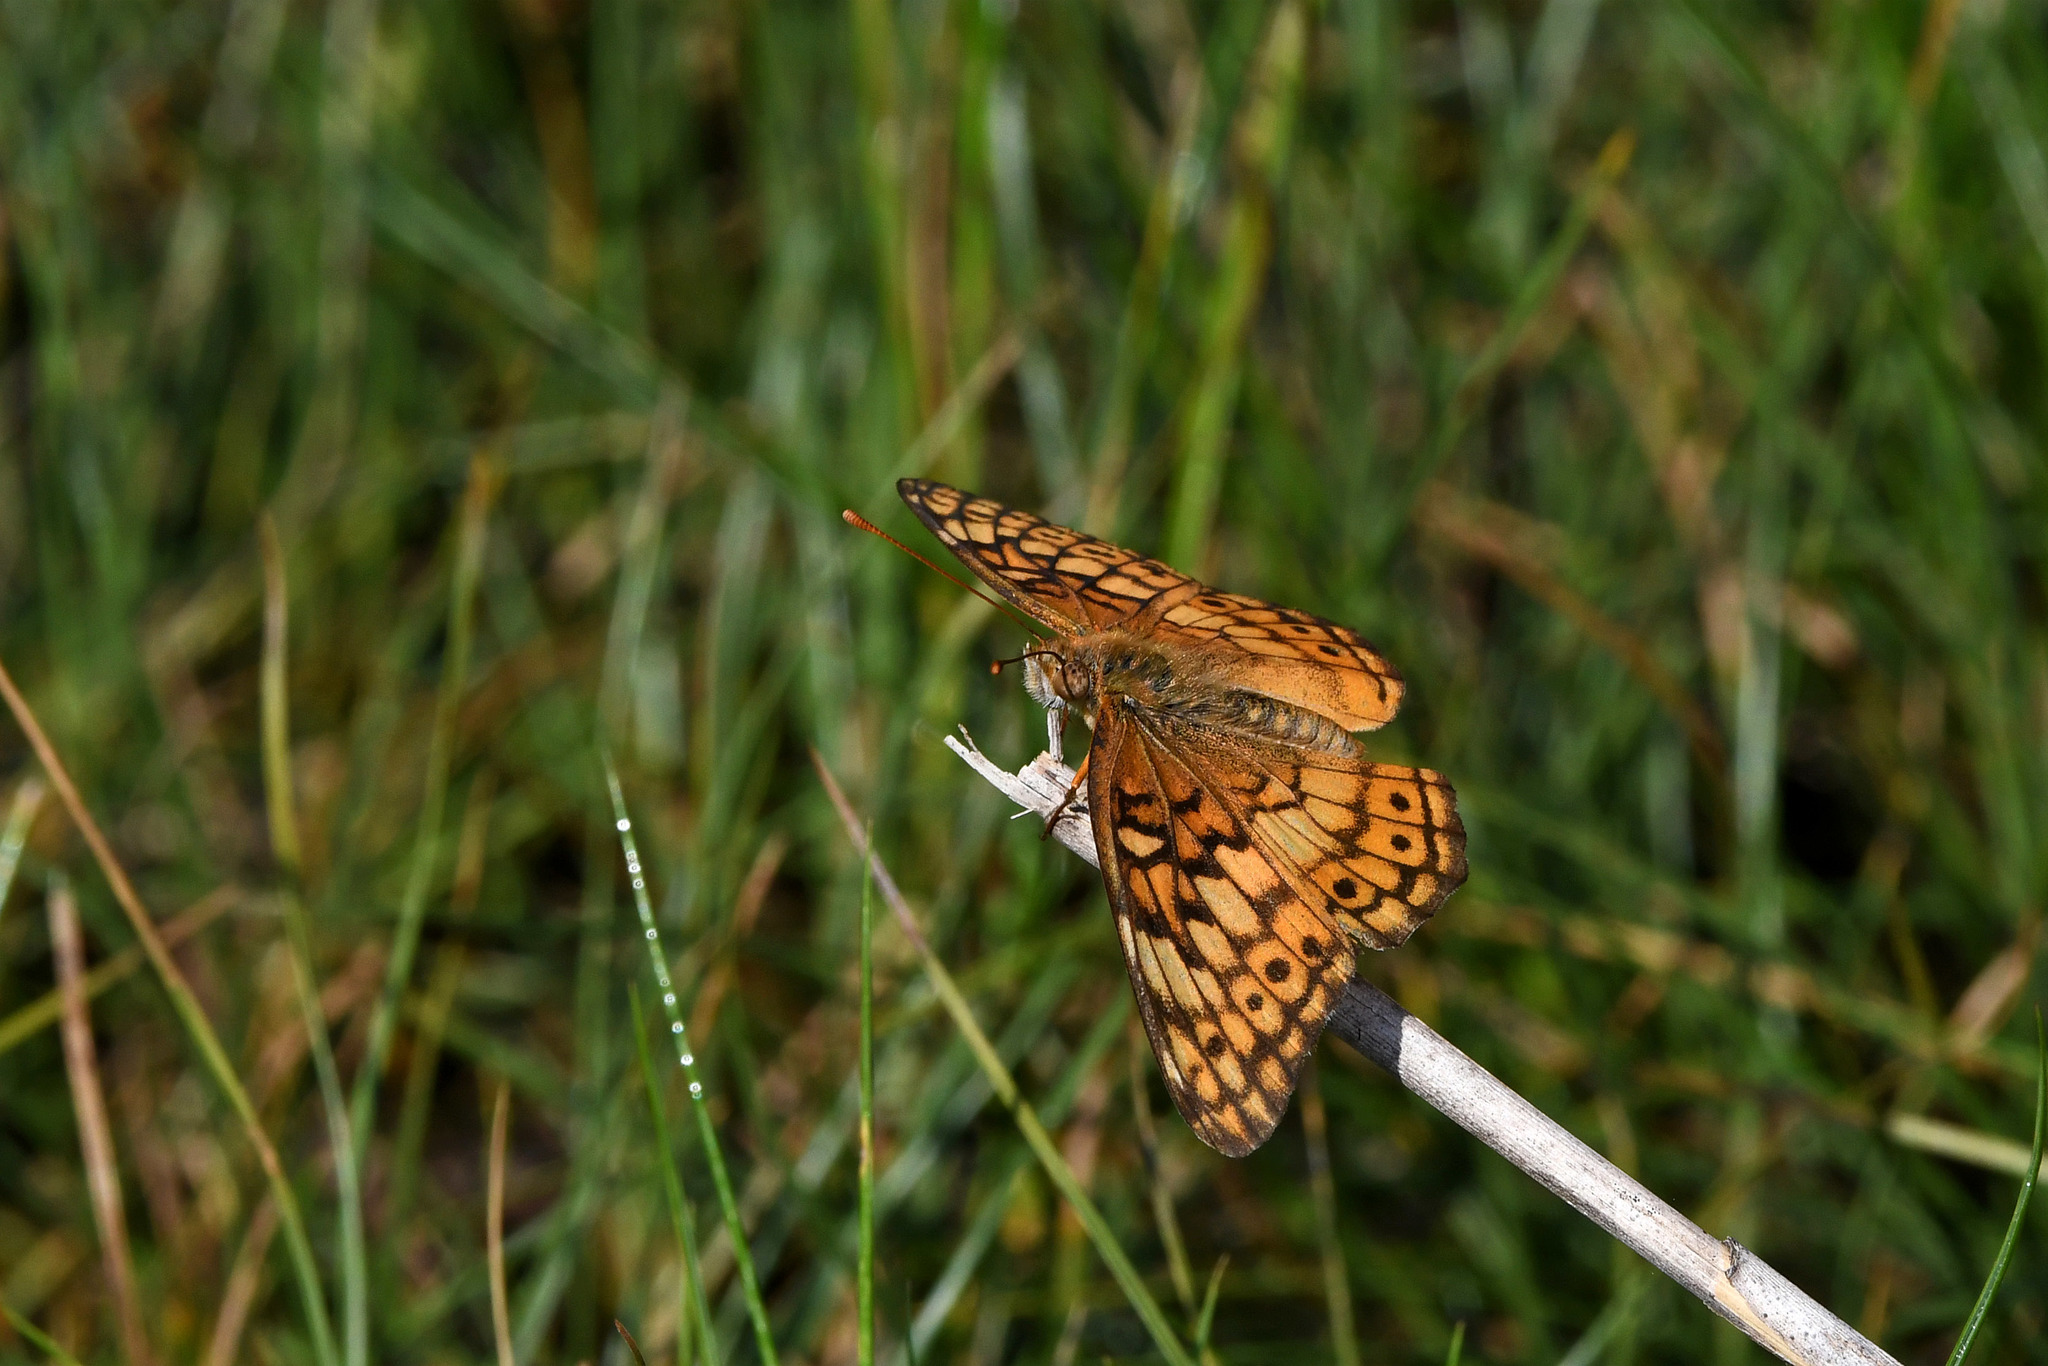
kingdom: Animalia
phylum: Arthropoda
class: Insecta
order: Lepidoptera
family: Nymphalidae
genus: Euptoieta
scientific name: Euptoieta claudia
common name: Variegated fritillary
